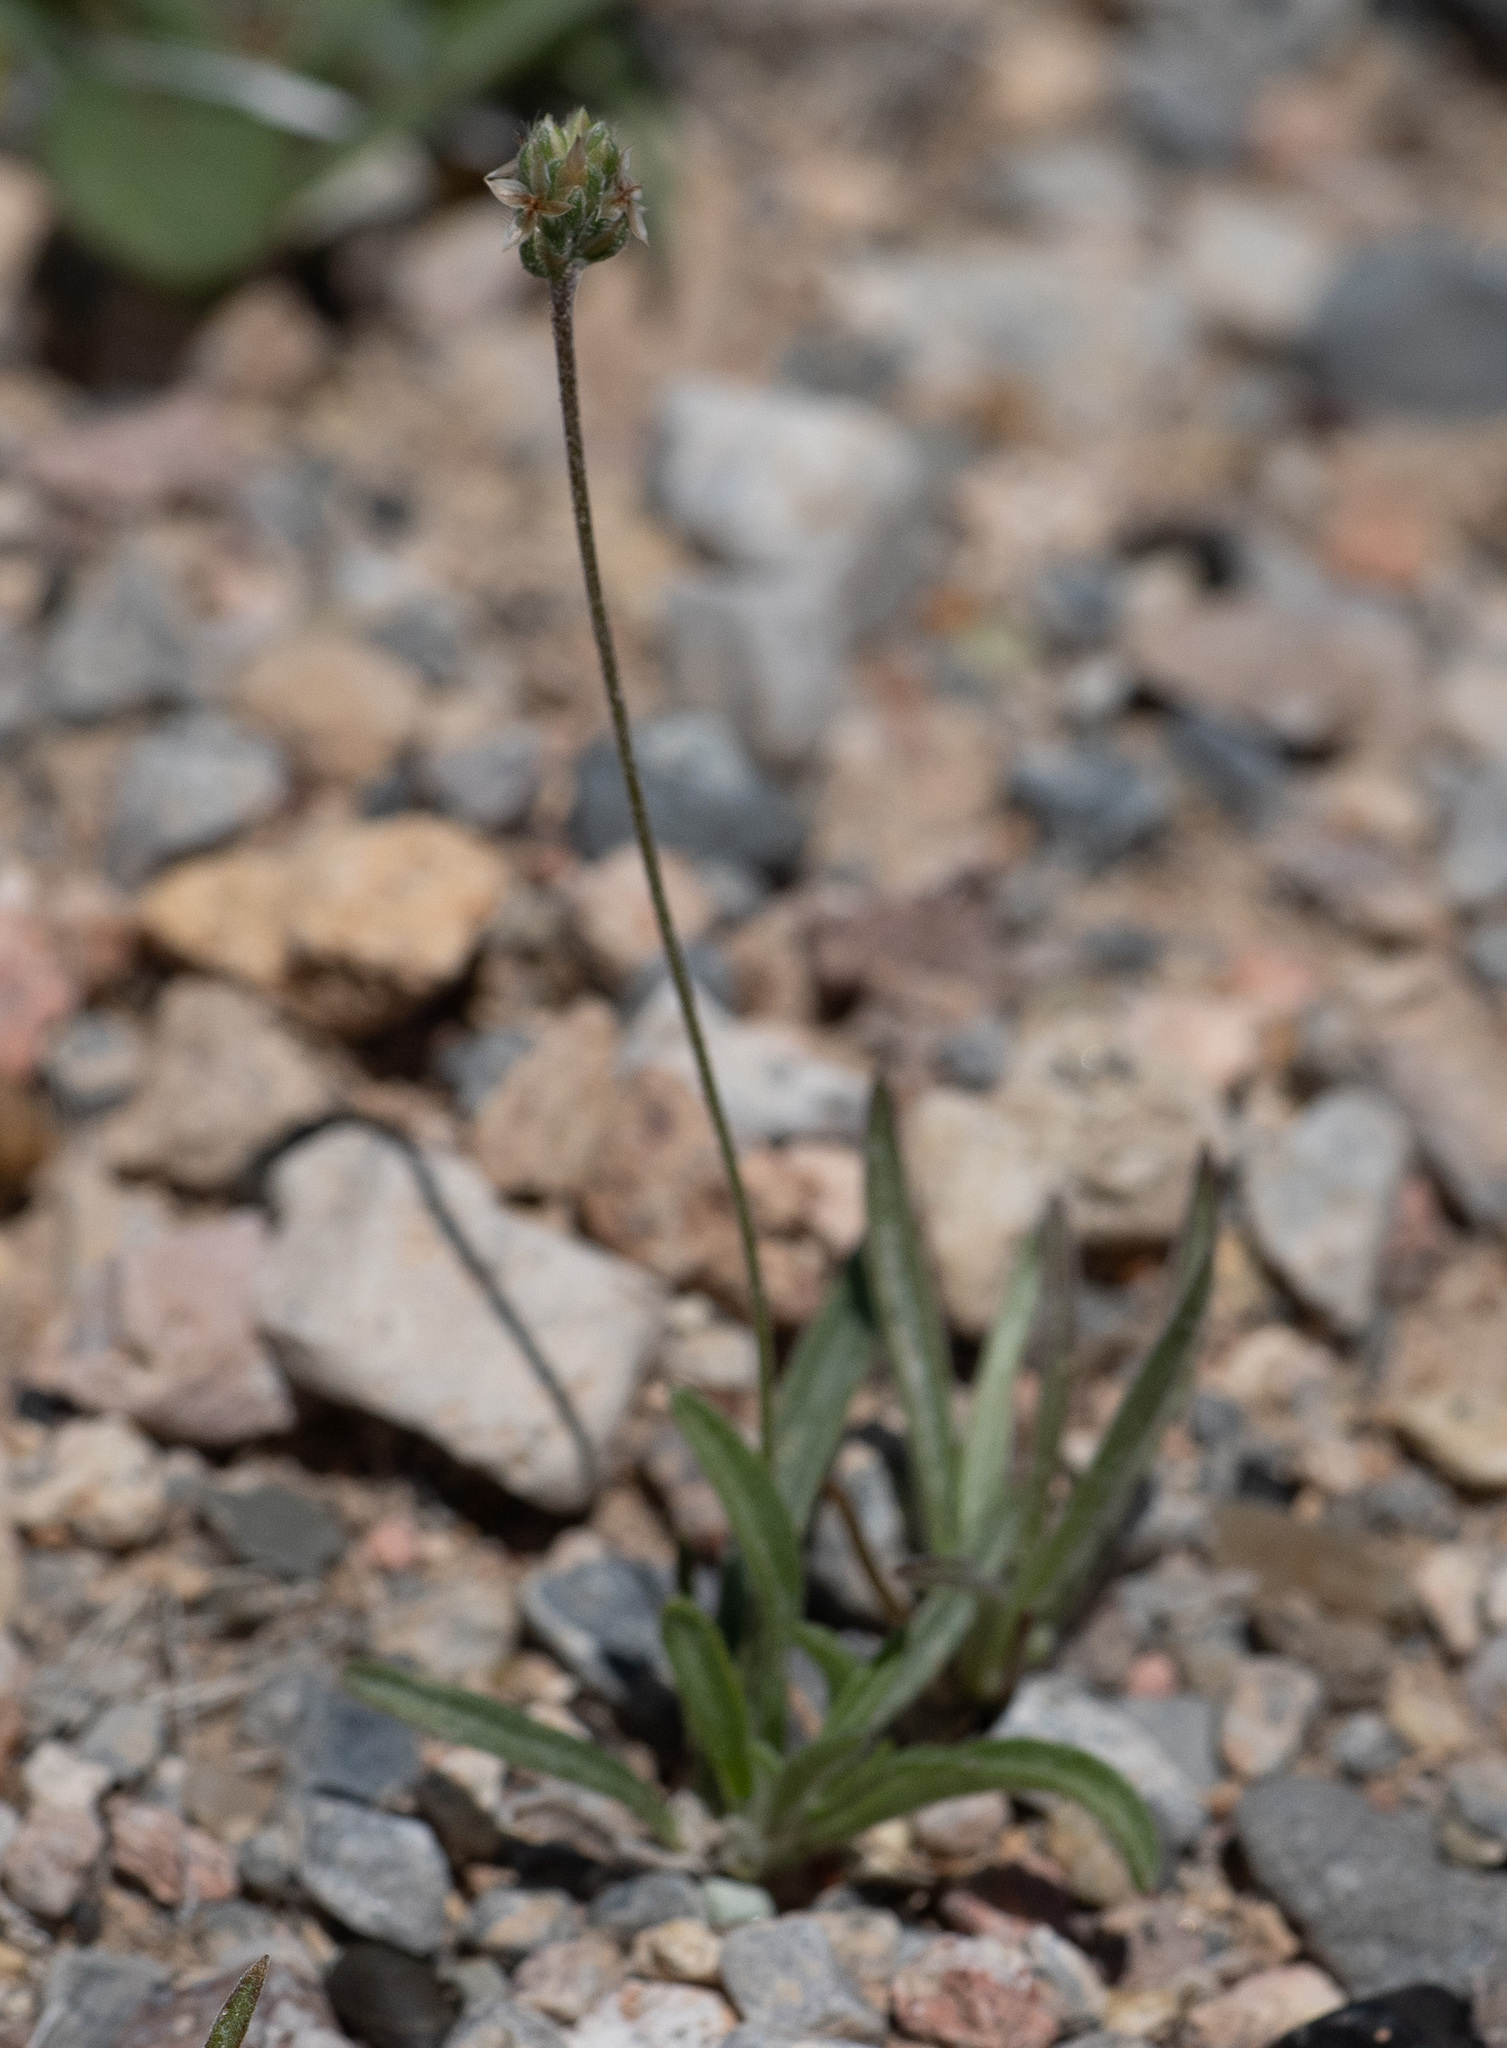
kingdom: Plantae
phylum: Tracheophyta
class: Magnoliopsida
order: Lamiales
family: Plantaginaceae
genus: Plantago
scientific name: Plantago ovata
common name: Blond plantain
